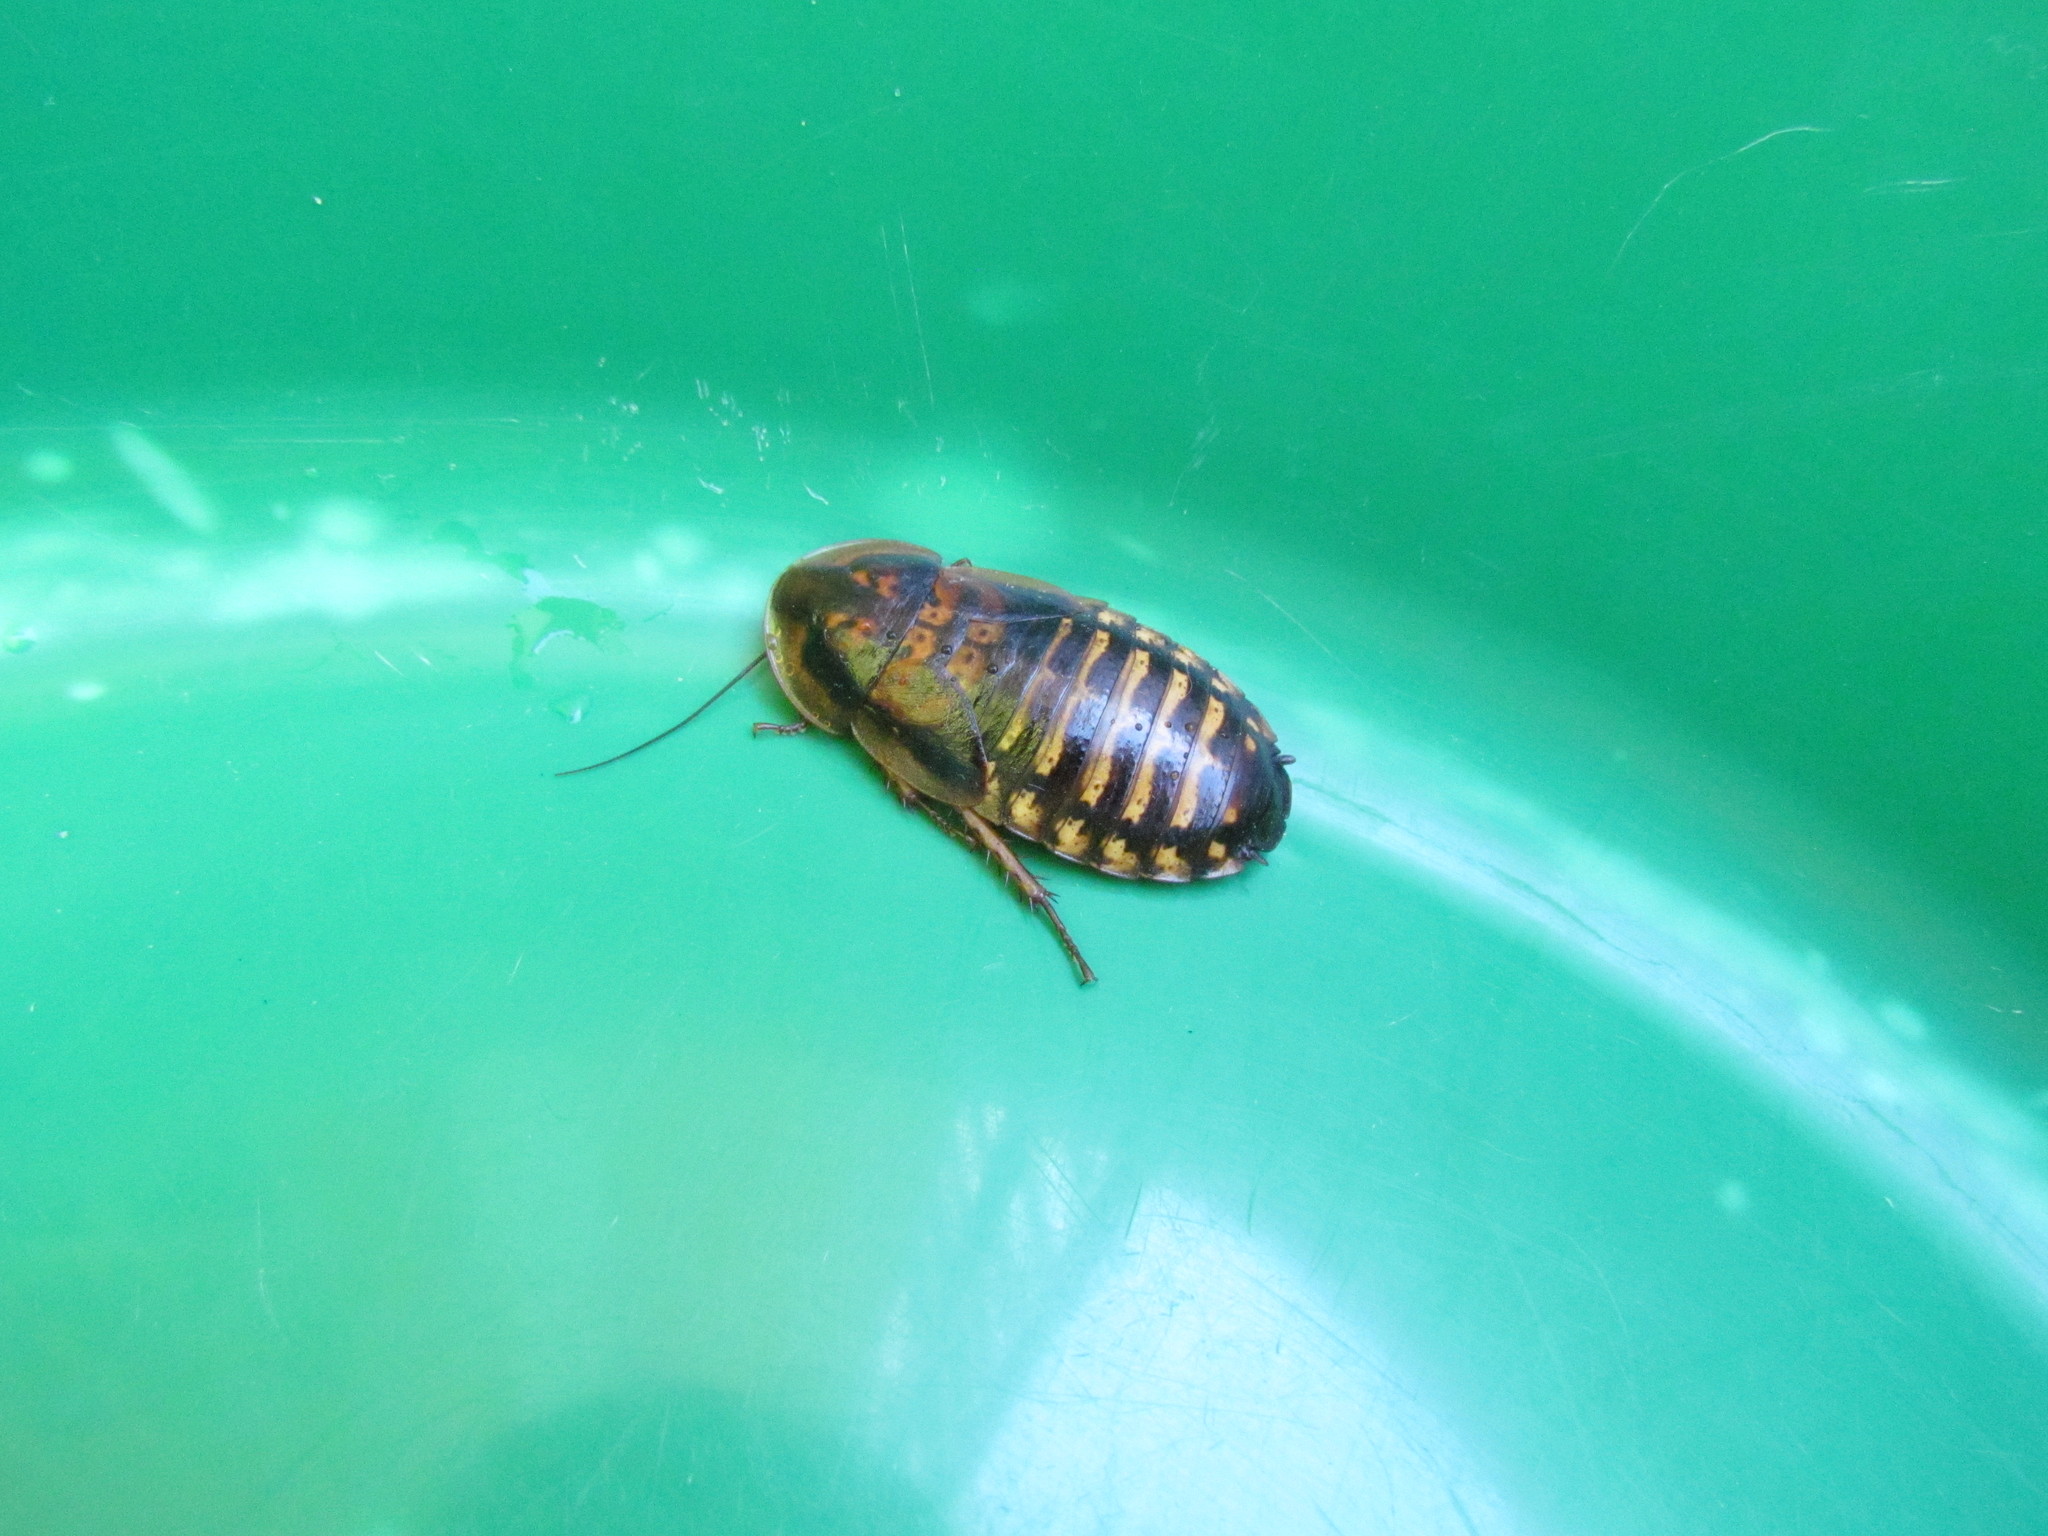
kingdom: Animalia
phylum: Arthropoda
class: Insecta
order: Blattodea
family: Blaberidae
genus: Blaptica
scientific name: Blaptica dubia
